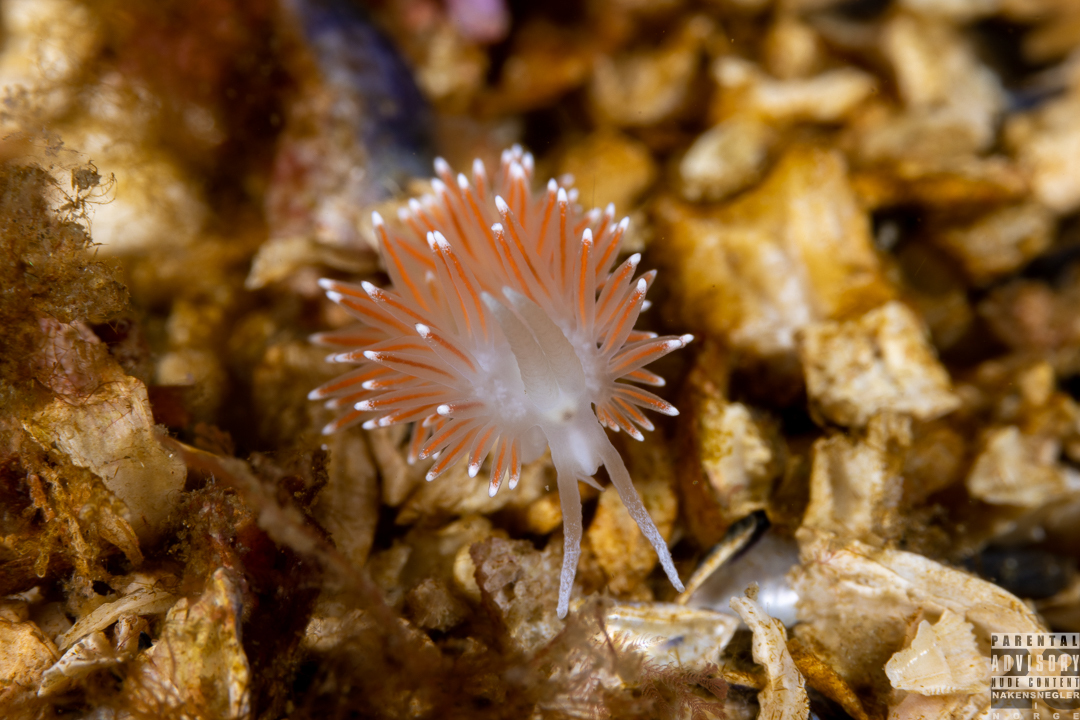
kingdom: Animalia
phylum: Mollusca
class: Gastropoda
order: Nudibranchia
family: Flabellinidae
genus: Carronella
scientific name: Carronella pellucida
